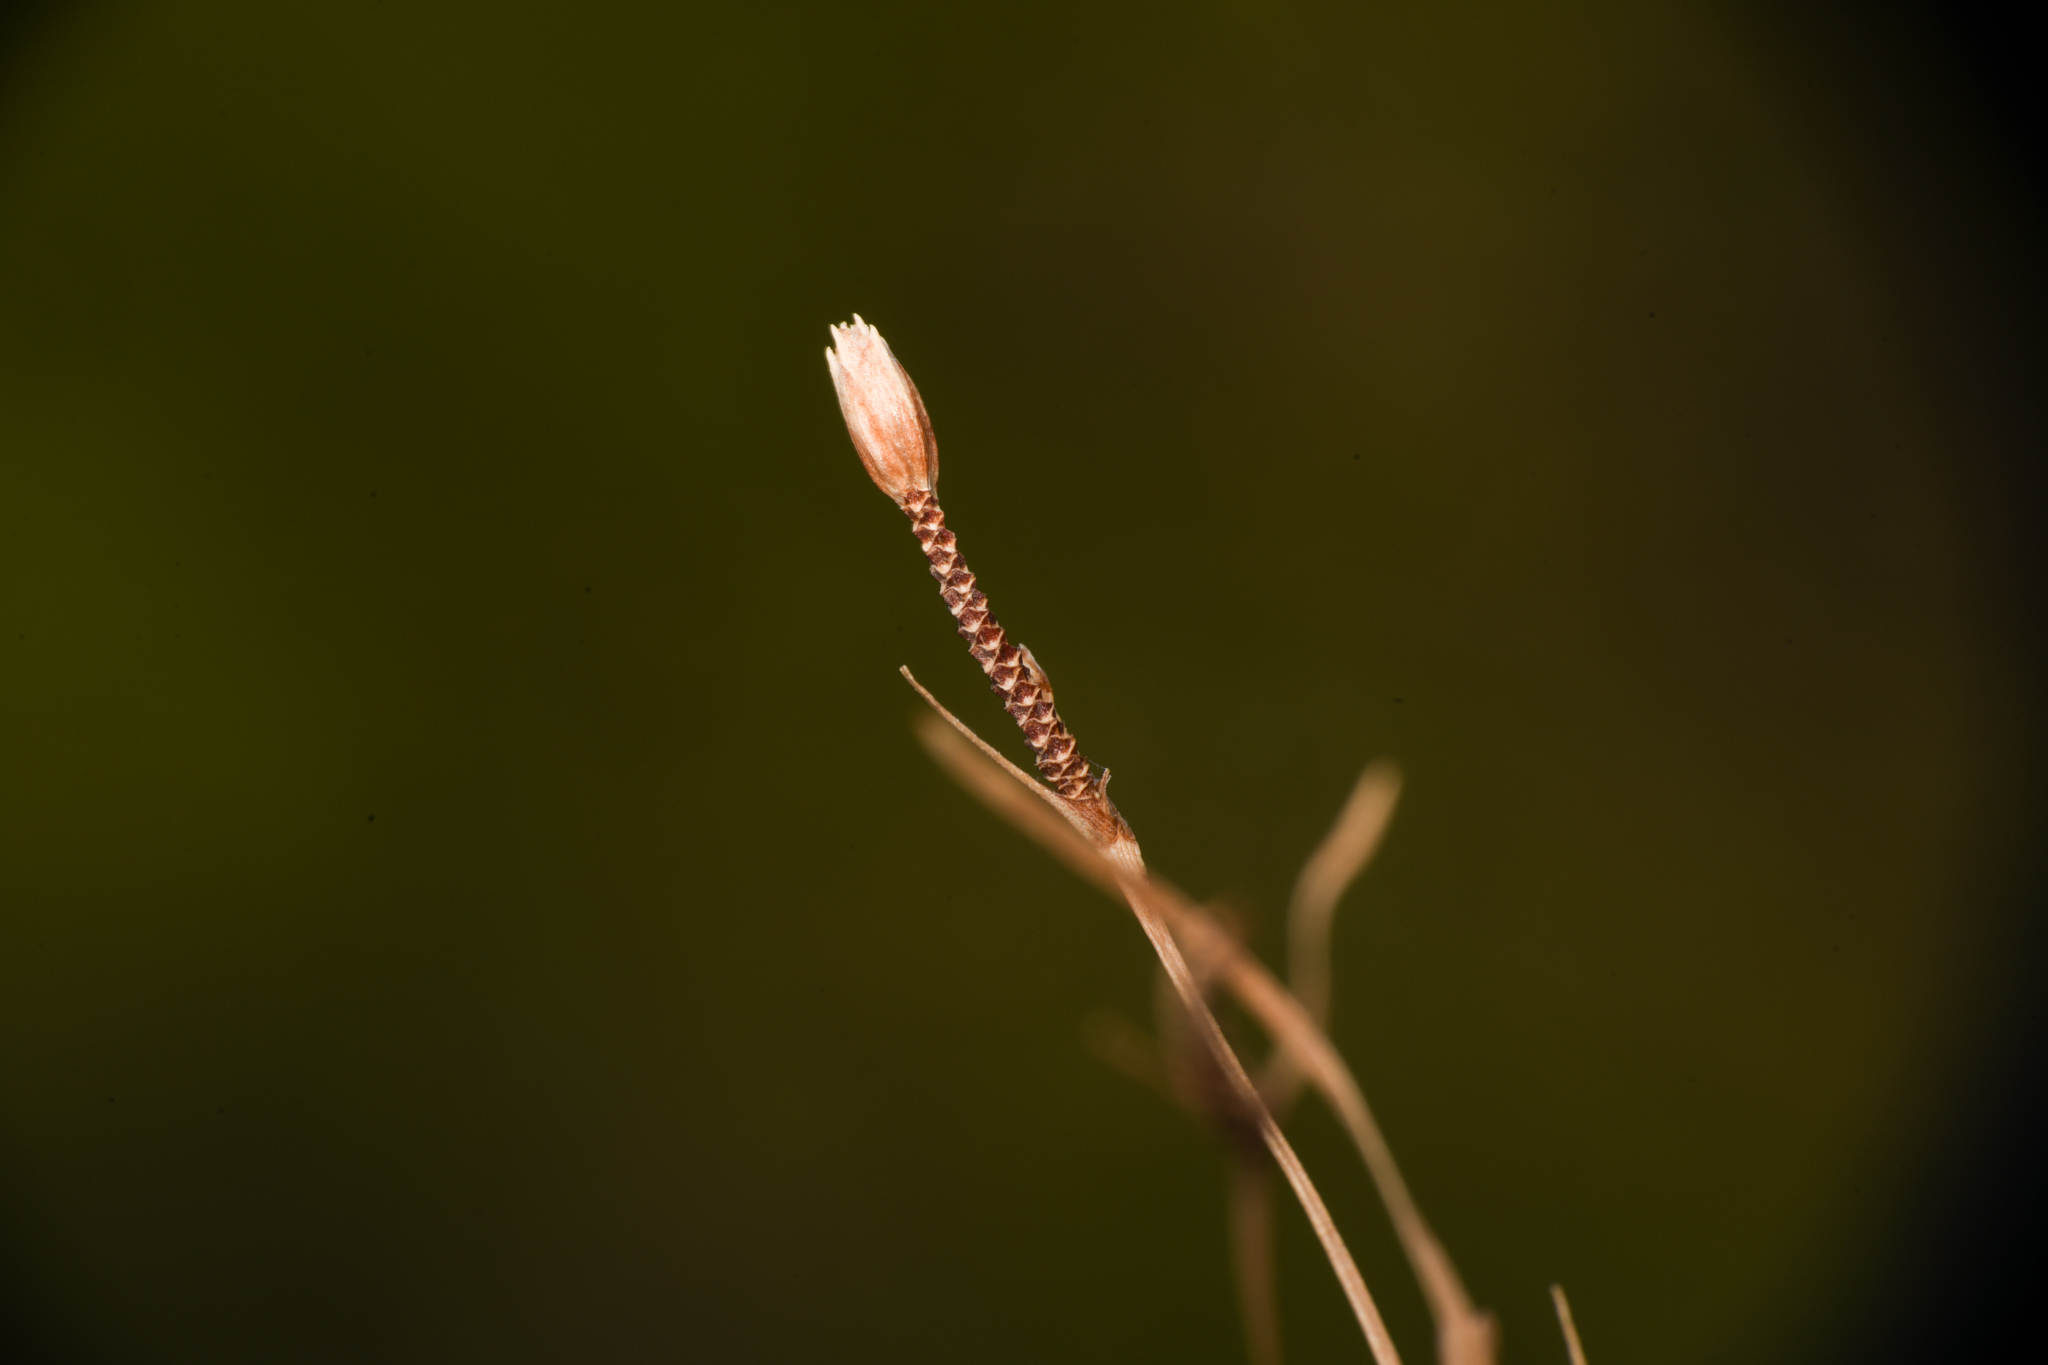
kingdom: Plantae
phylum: Tracheophyta
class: Liliopsida
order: Poales
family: Cyperaceae
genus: Fimbristylis
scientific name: Fimbristylis thermalis
